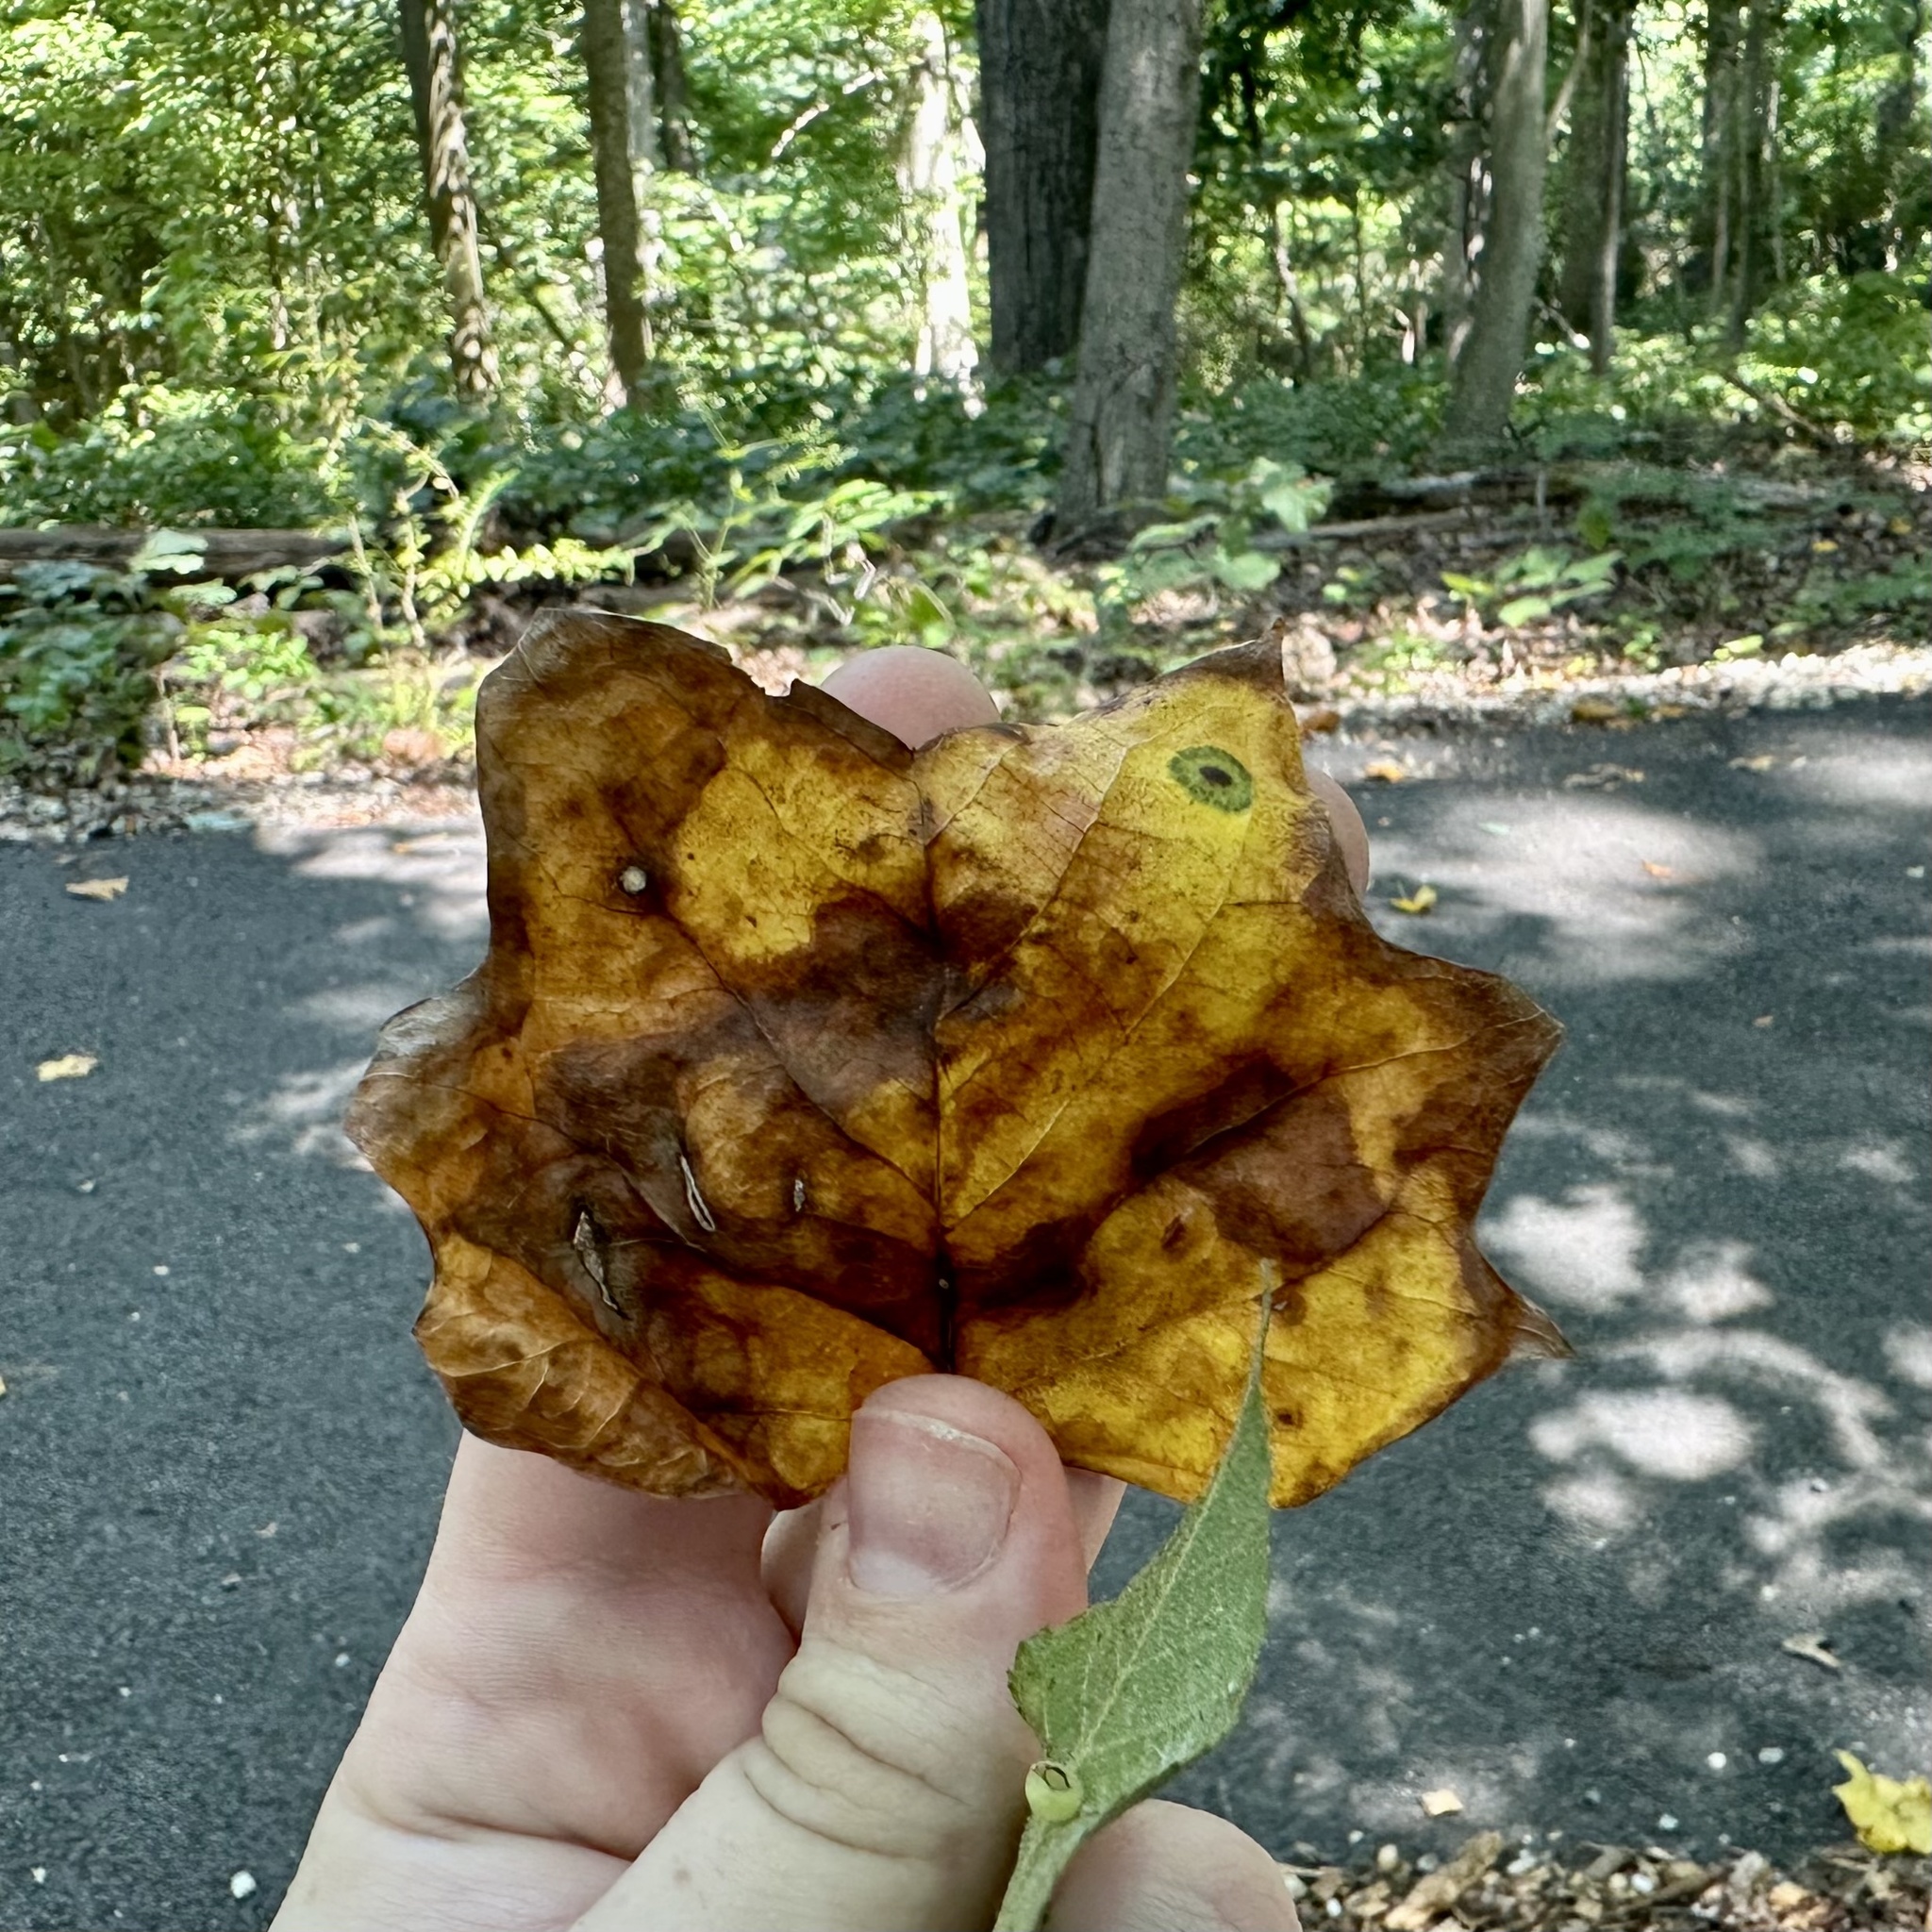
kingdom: Animalia
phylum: Arthropoda
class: Insecta
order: Diptera
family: Cecidomyiidae
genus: Resseliella
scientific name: Resseliella liriodendri
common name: Tulip tree leaf spot gall midge
